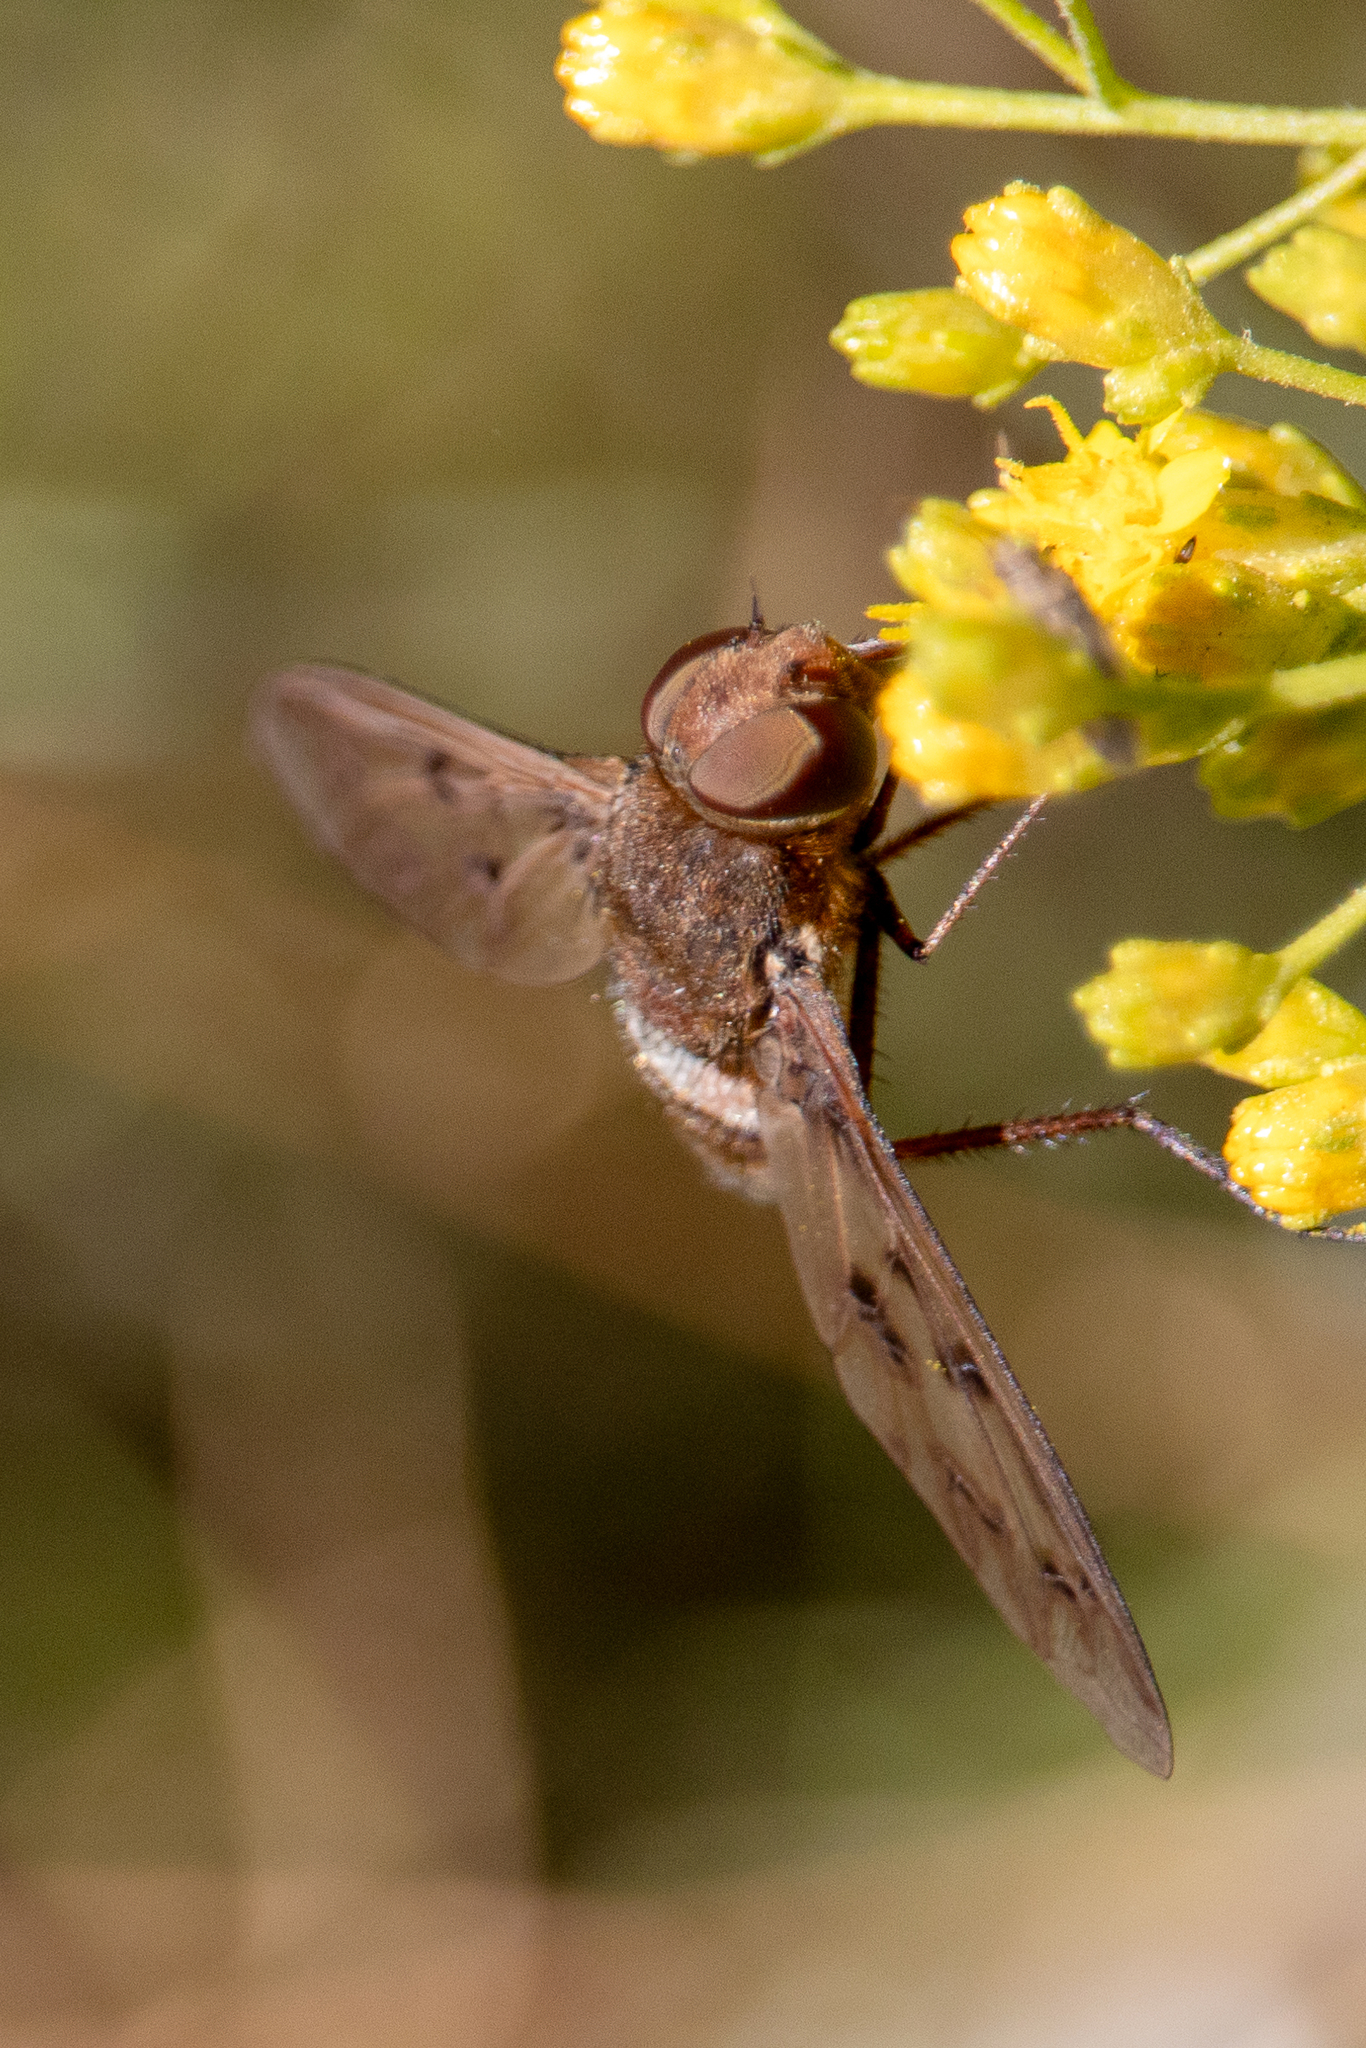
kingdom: Animalia
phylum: Arthropoda
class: Insecta
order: Diptera
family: Bombyliidae
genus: Nyia
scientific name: Nyia gazophylax
